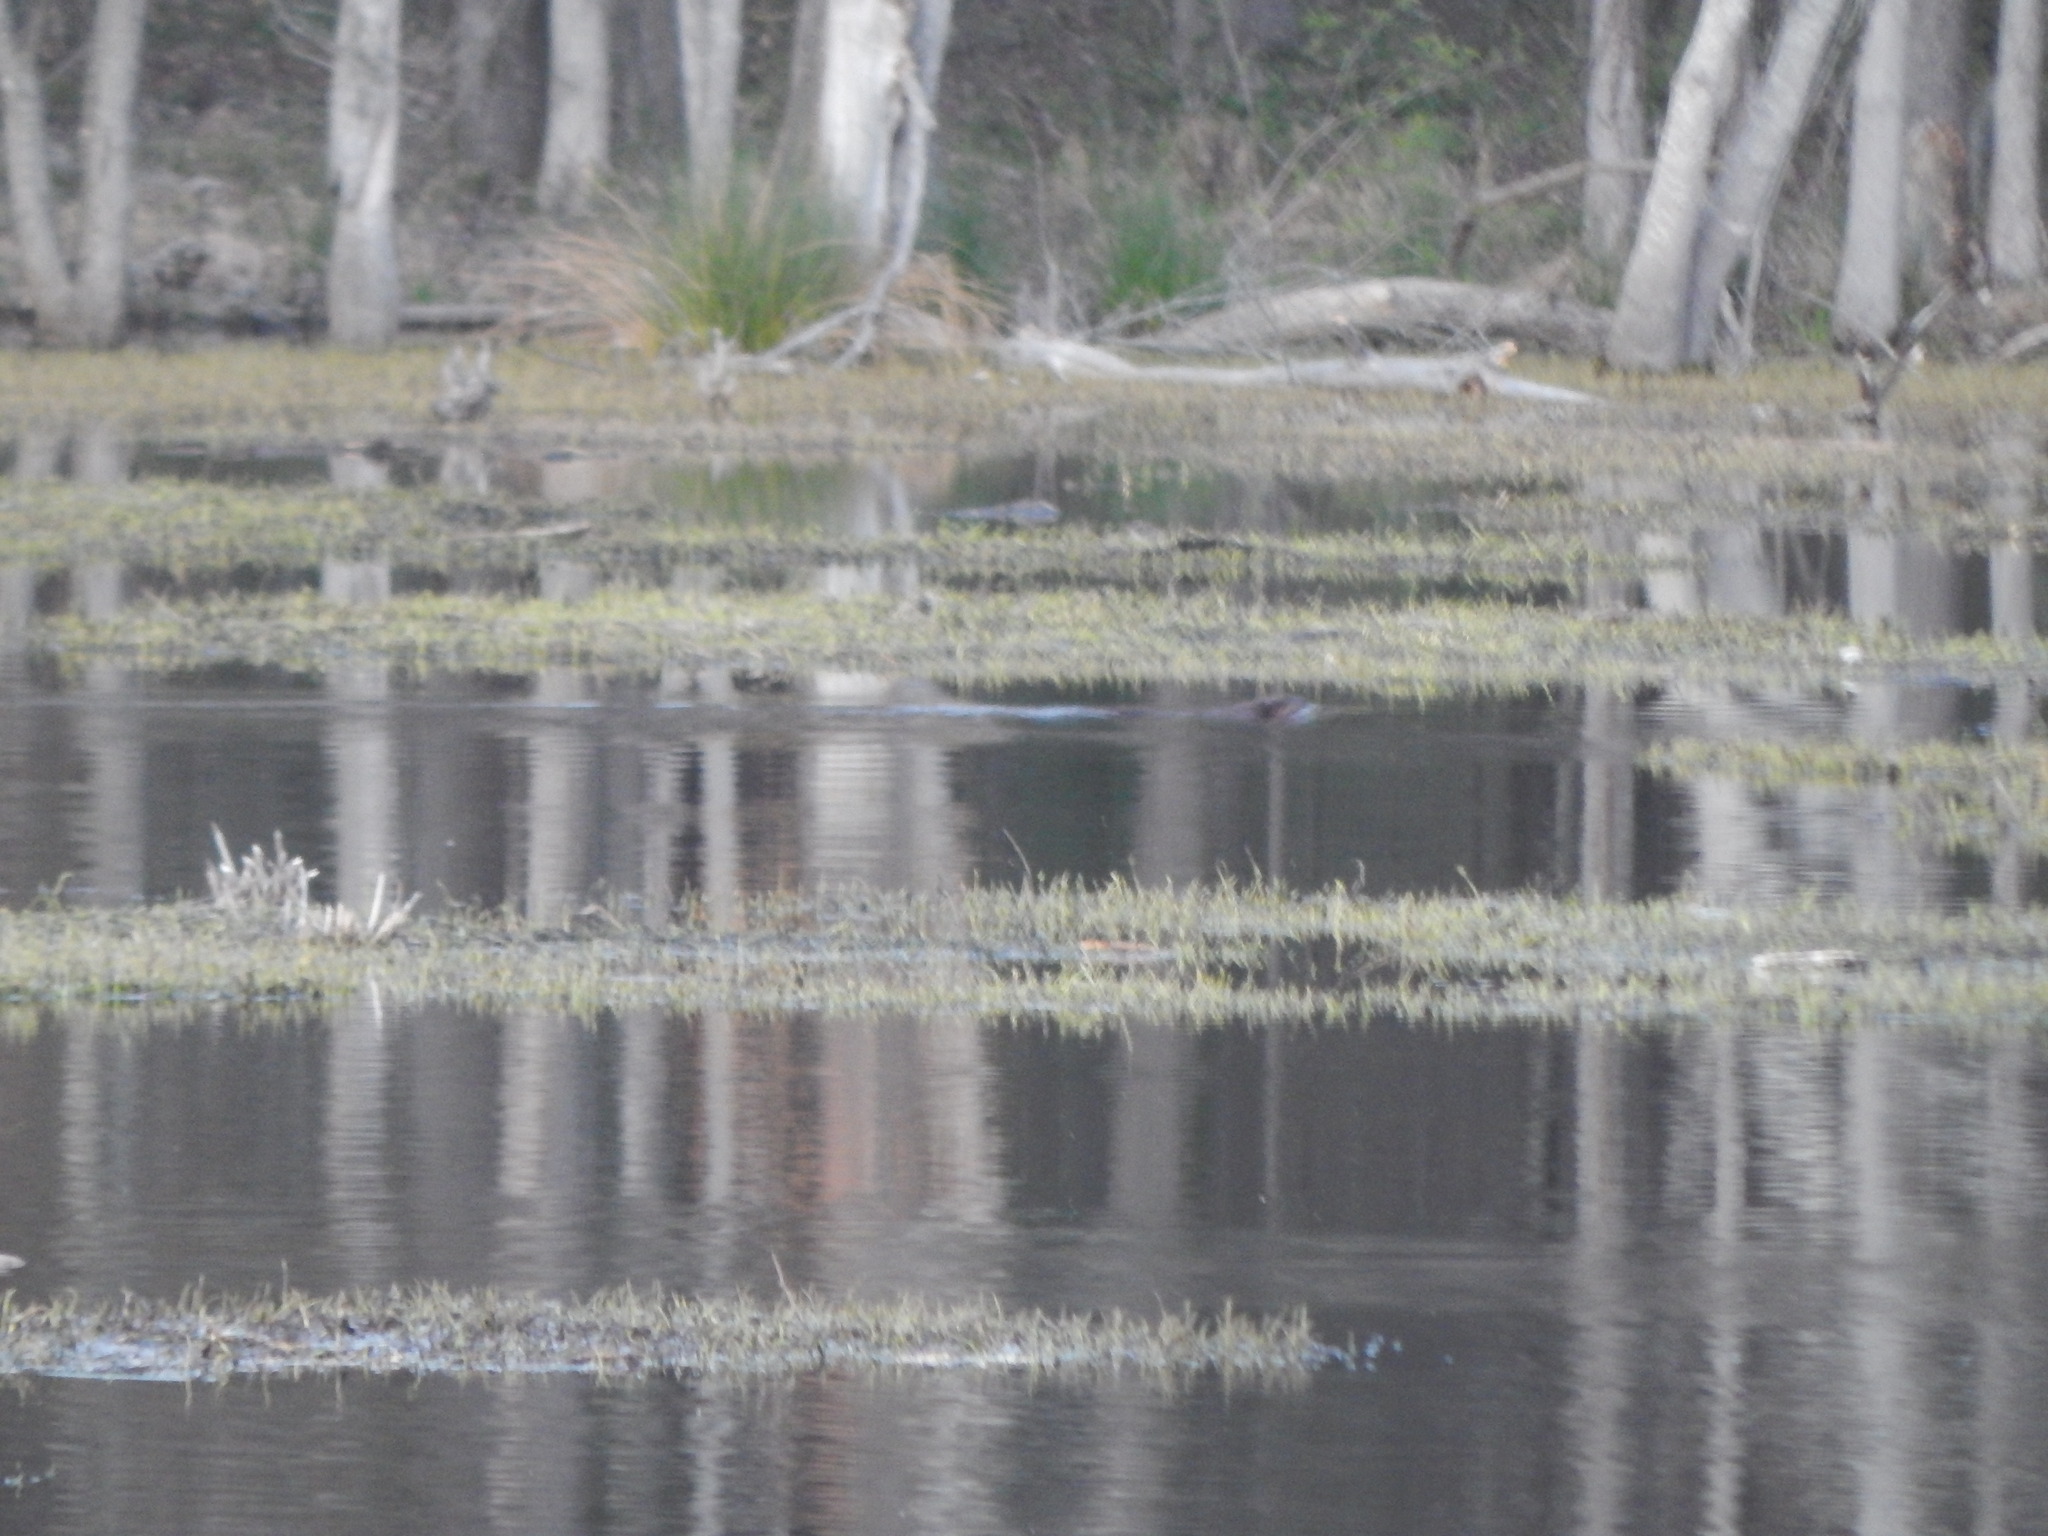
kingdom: Animalia
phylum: Chordata
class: Mammalia
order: Rodentia
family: Castoridae
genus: Castor
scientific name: Castor canadensis
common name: American beaver
